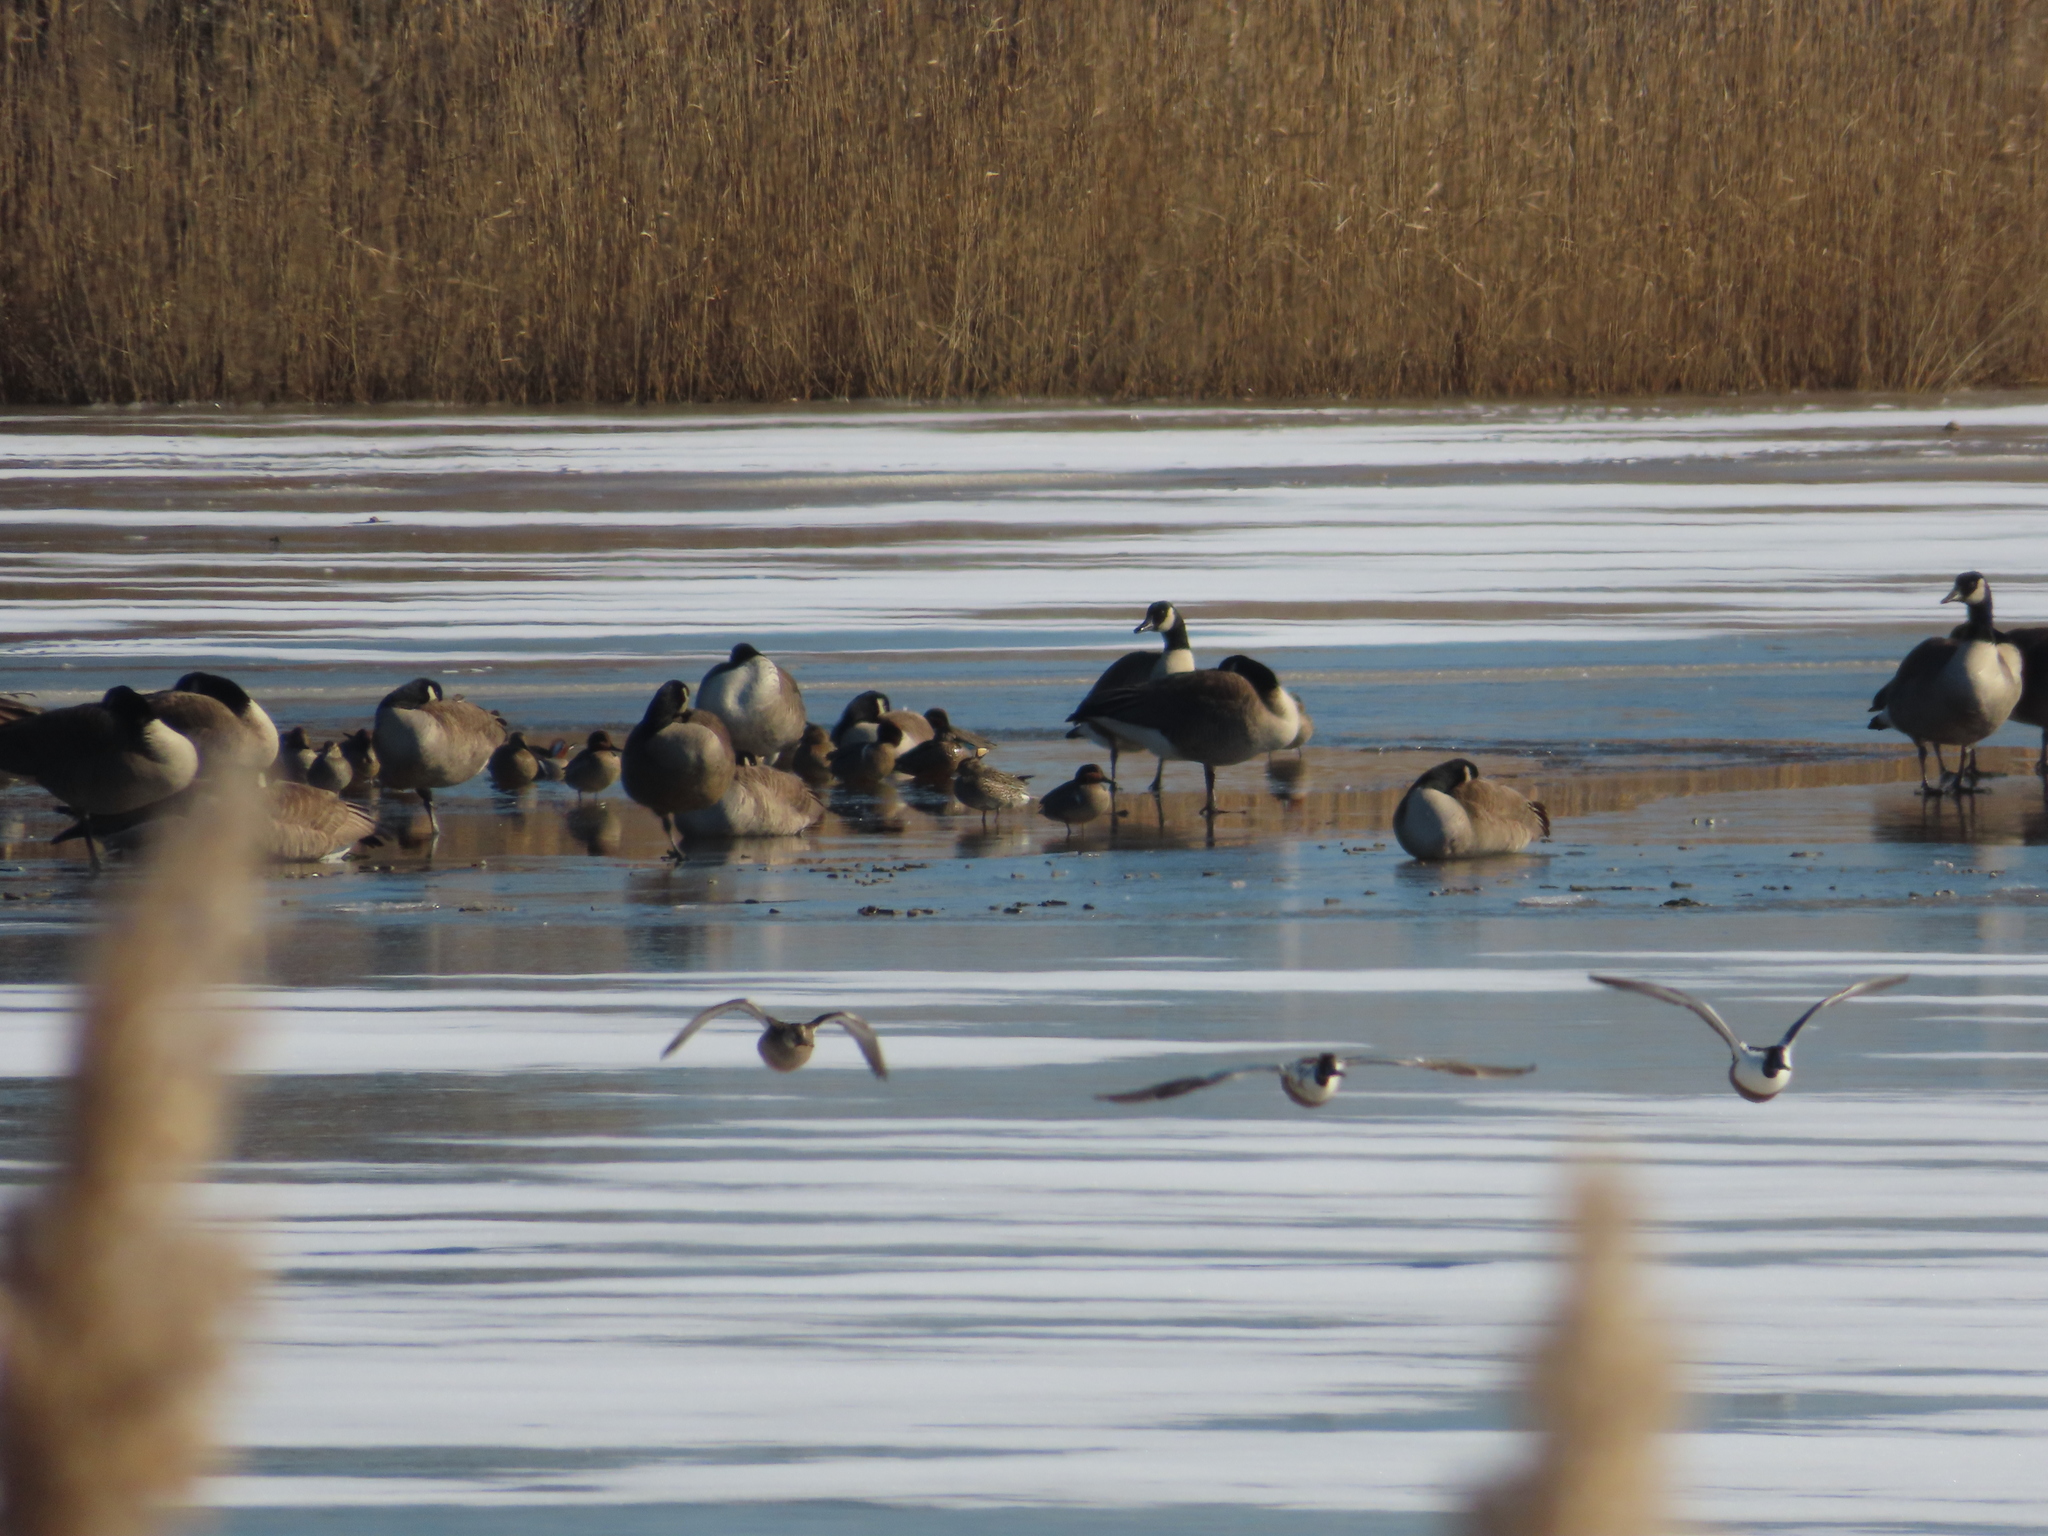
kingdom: Animalia
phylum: Chordata
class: Aves
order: Anseriformes
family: Anatidae
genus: Branta
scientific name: Branta canadensis
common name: Canada goose
